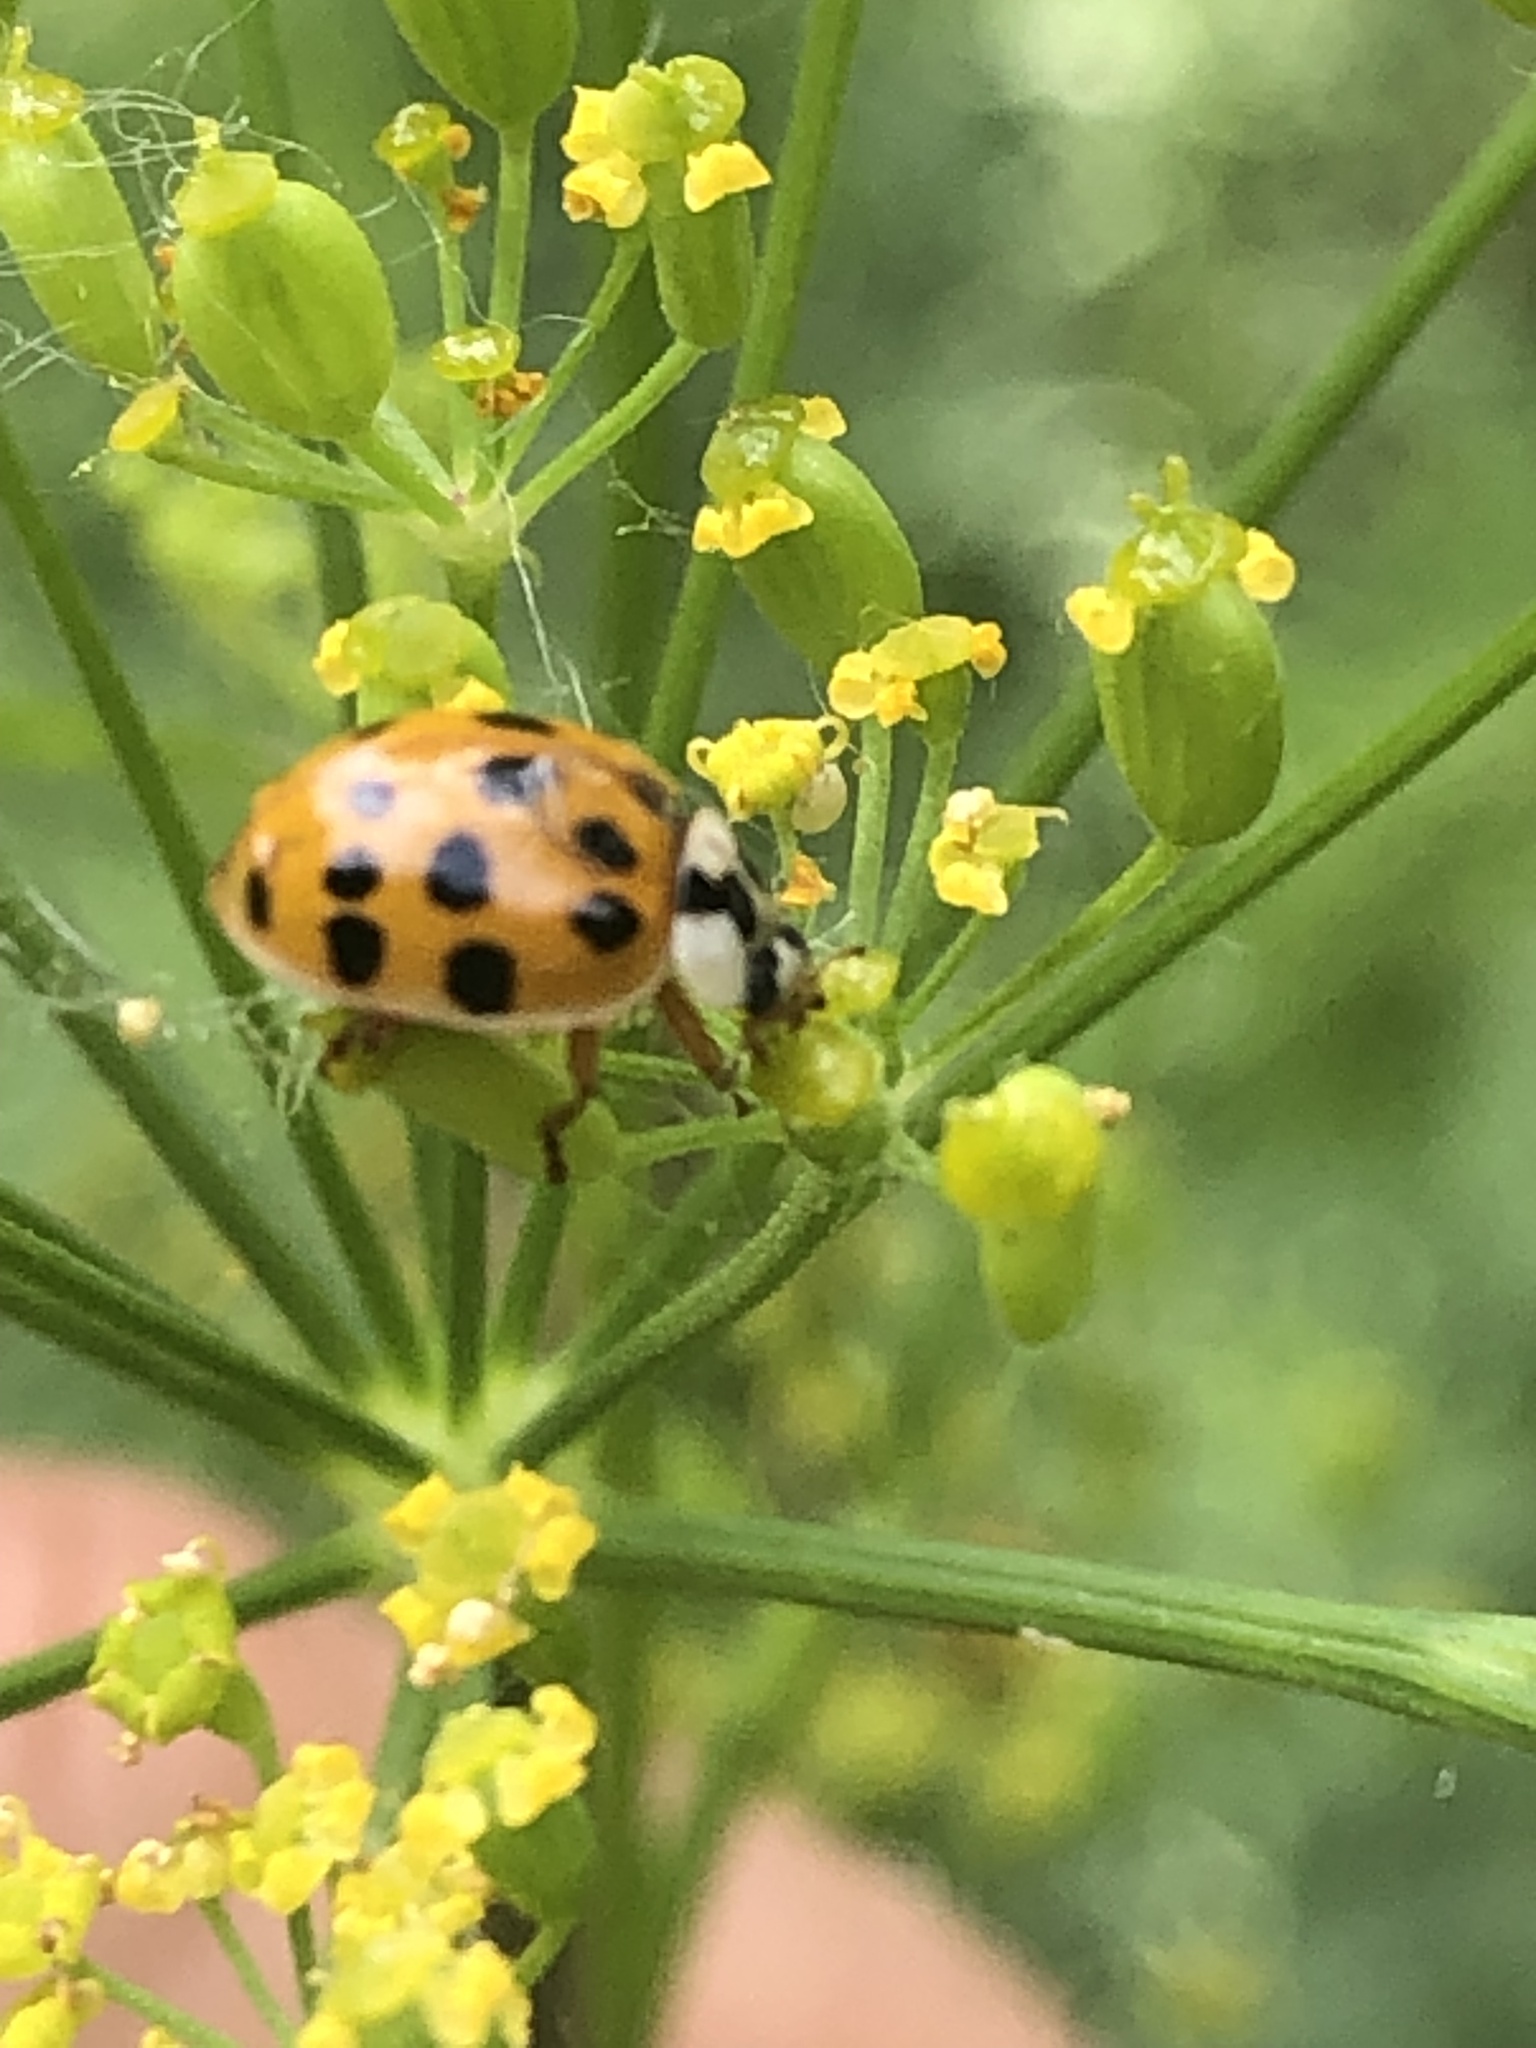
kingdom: Animalia
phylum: Arthropoda
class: Insecta
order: Coleoptera
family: Coccinellidae
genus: Harmonia
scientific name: Harmonia axyridis
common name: Harlequin ladybird
